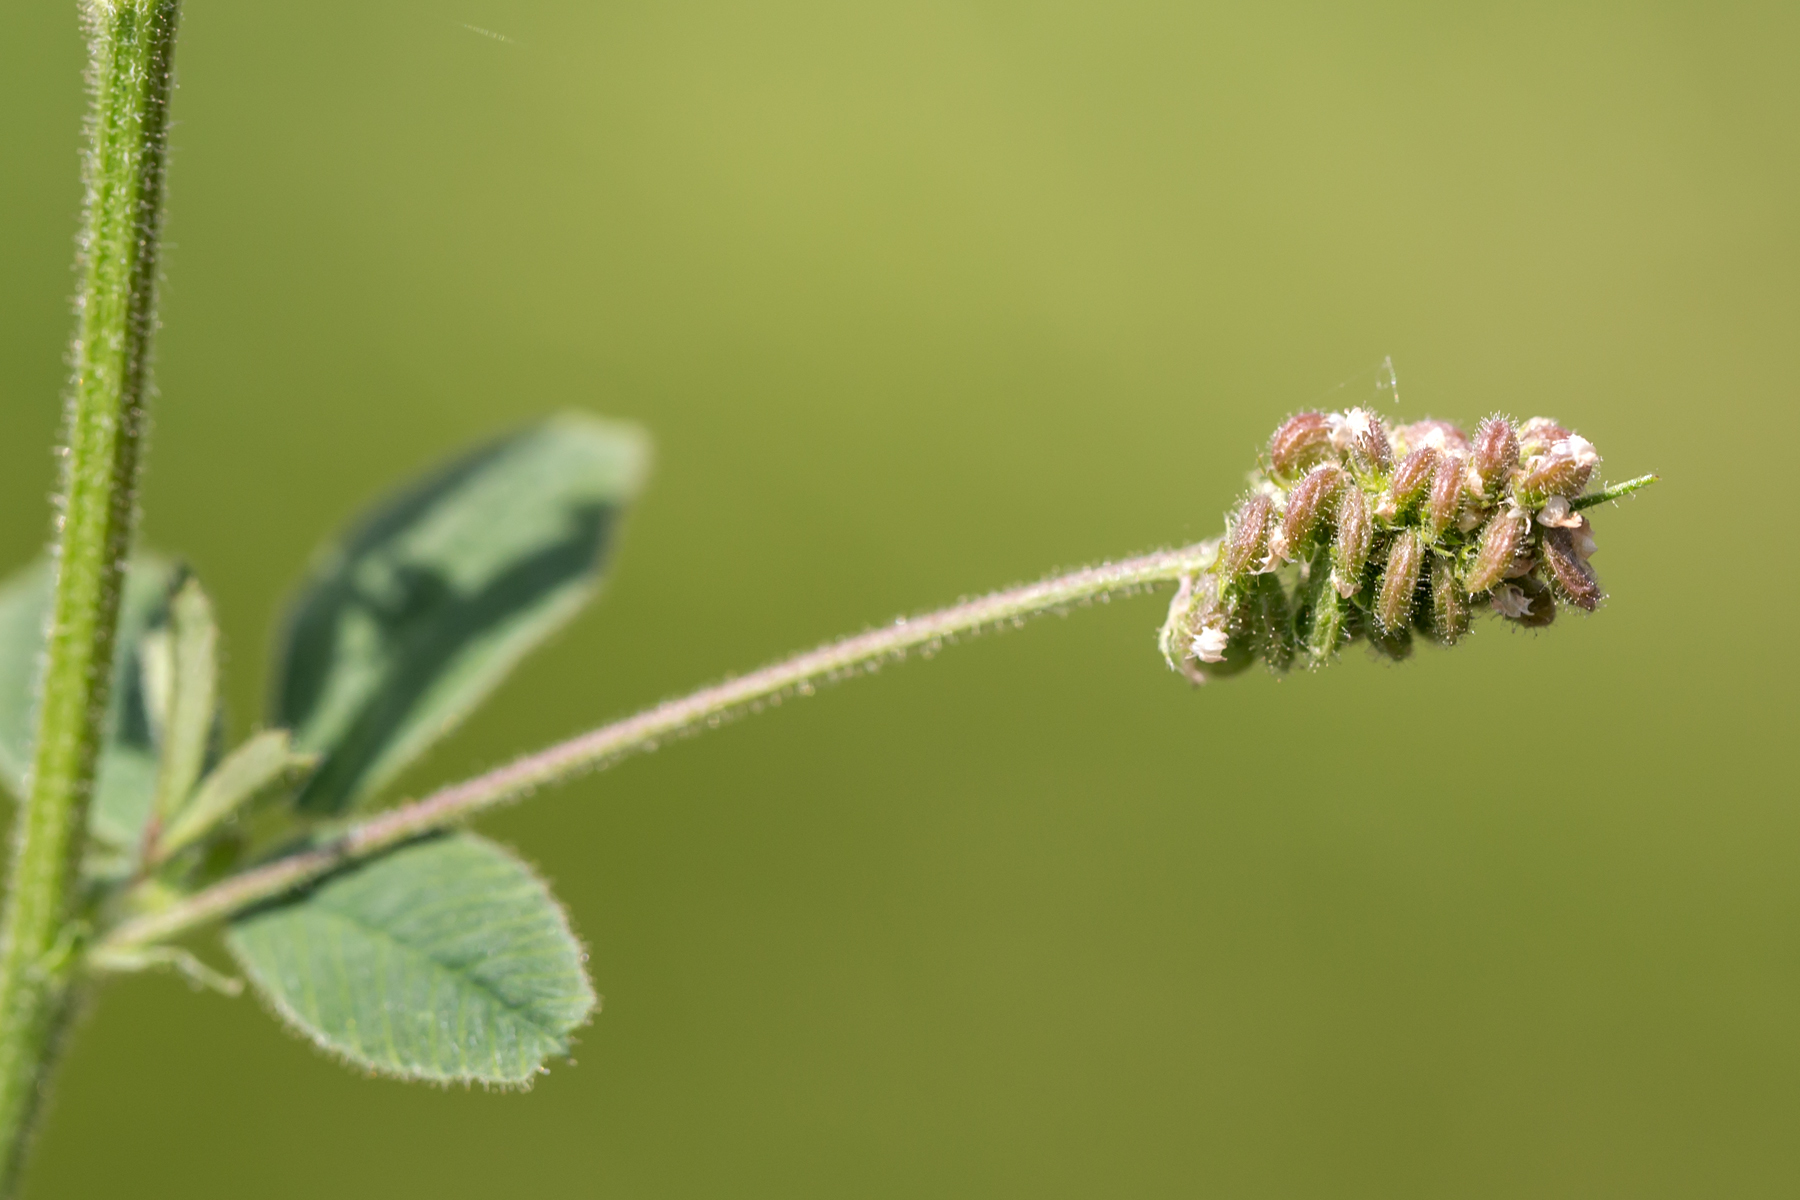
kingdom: Plantae
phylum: Tracheophyta
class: Magnoliopsida
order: Fabales
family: Fabaceae
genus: Medicago
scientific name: Medicago lupulina
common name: Black medick
